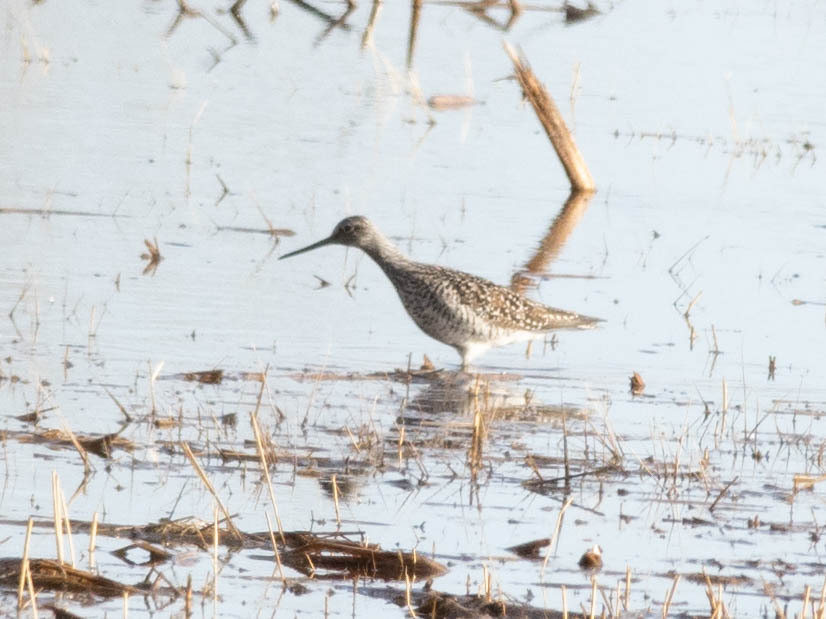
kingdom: Animalia
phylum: Chordata
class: Aves
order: Charadriiformes
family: Scolopacidae
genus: Tringa
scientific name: Tringa melanoleuca
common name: Greater yellowlegs
